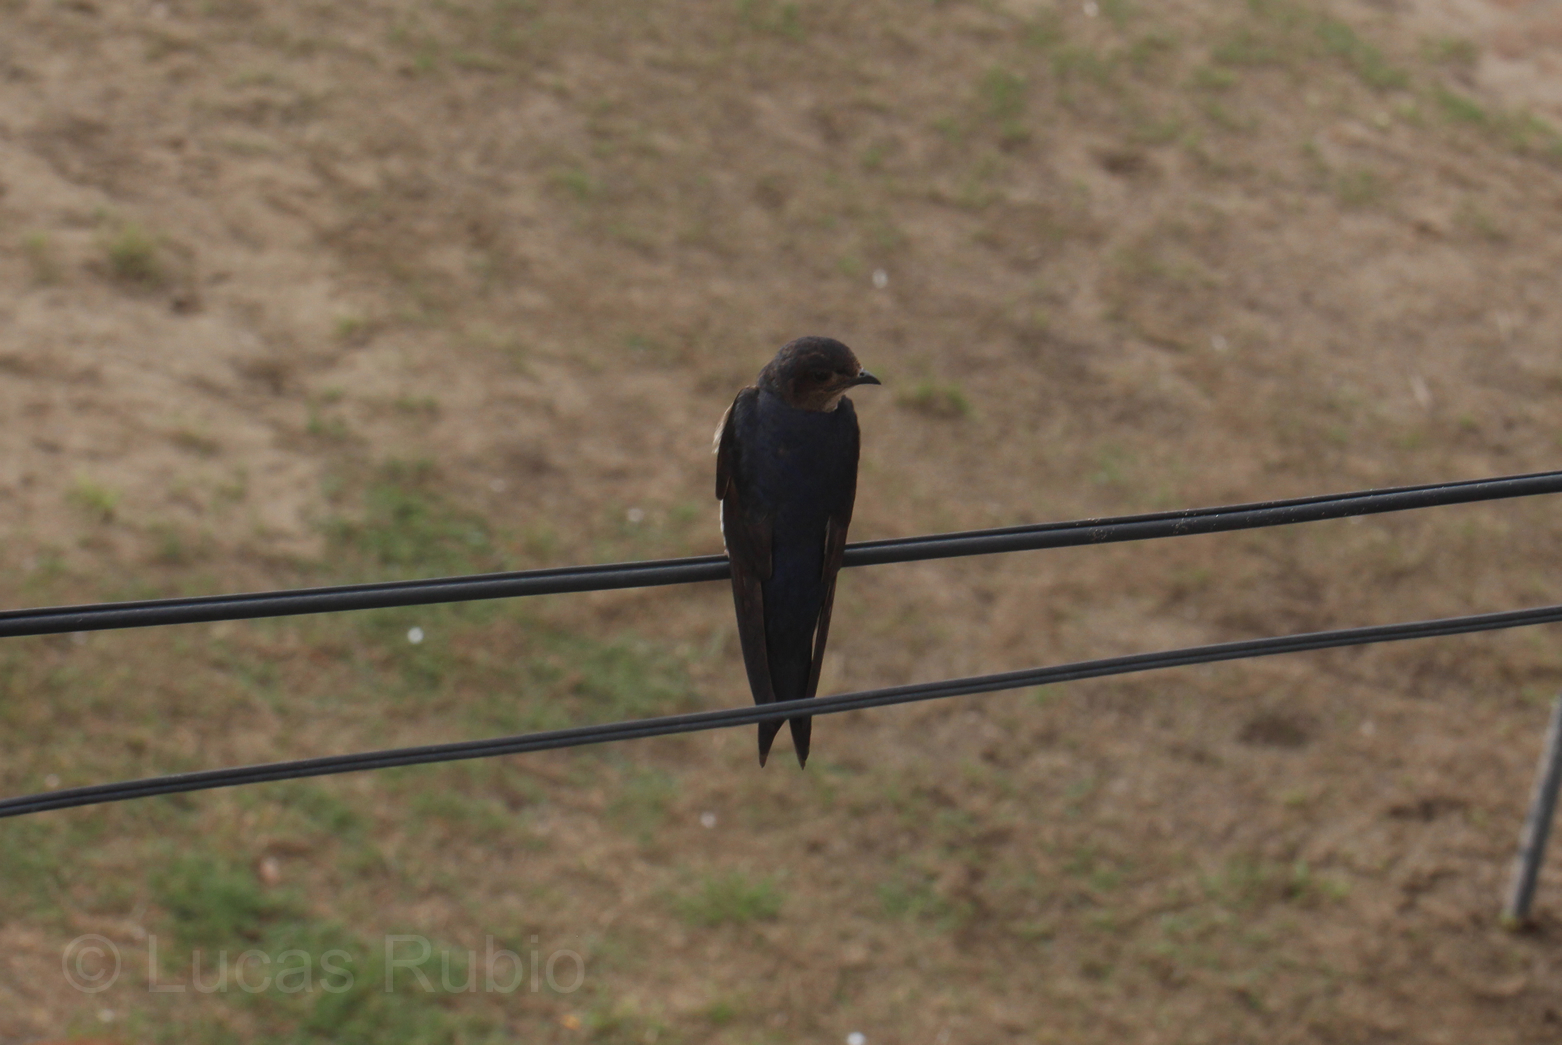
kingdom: Animalia
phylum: Chordata
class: Aves
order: Passeriformes
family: Hirundinidae
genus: Hirundo
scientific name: Hirundo rustica
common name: Barn swallow
